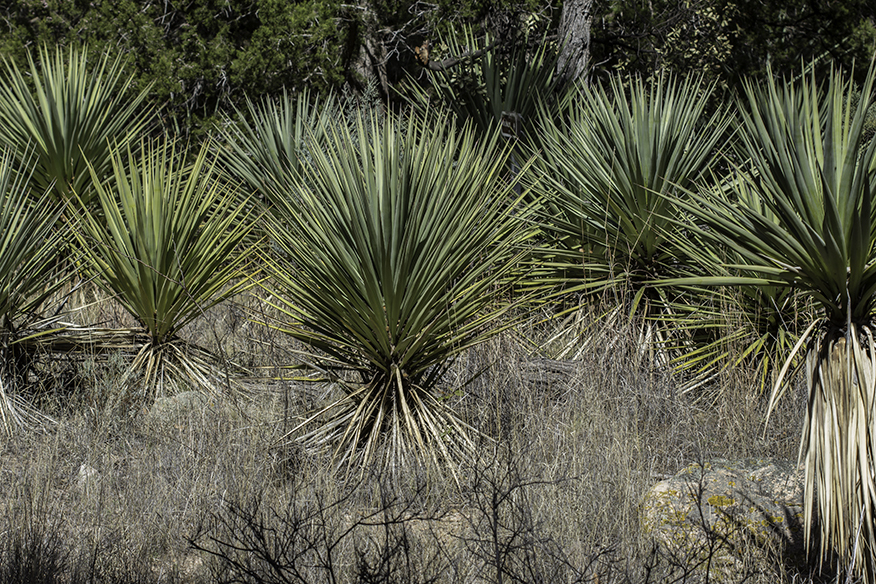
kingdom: Plantae
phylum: Tracheophyta
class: Liliopsida
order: Asparagales
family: Asparagaceae
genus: Yucca
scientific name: Yucca madrensis
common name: Hoary yucca
